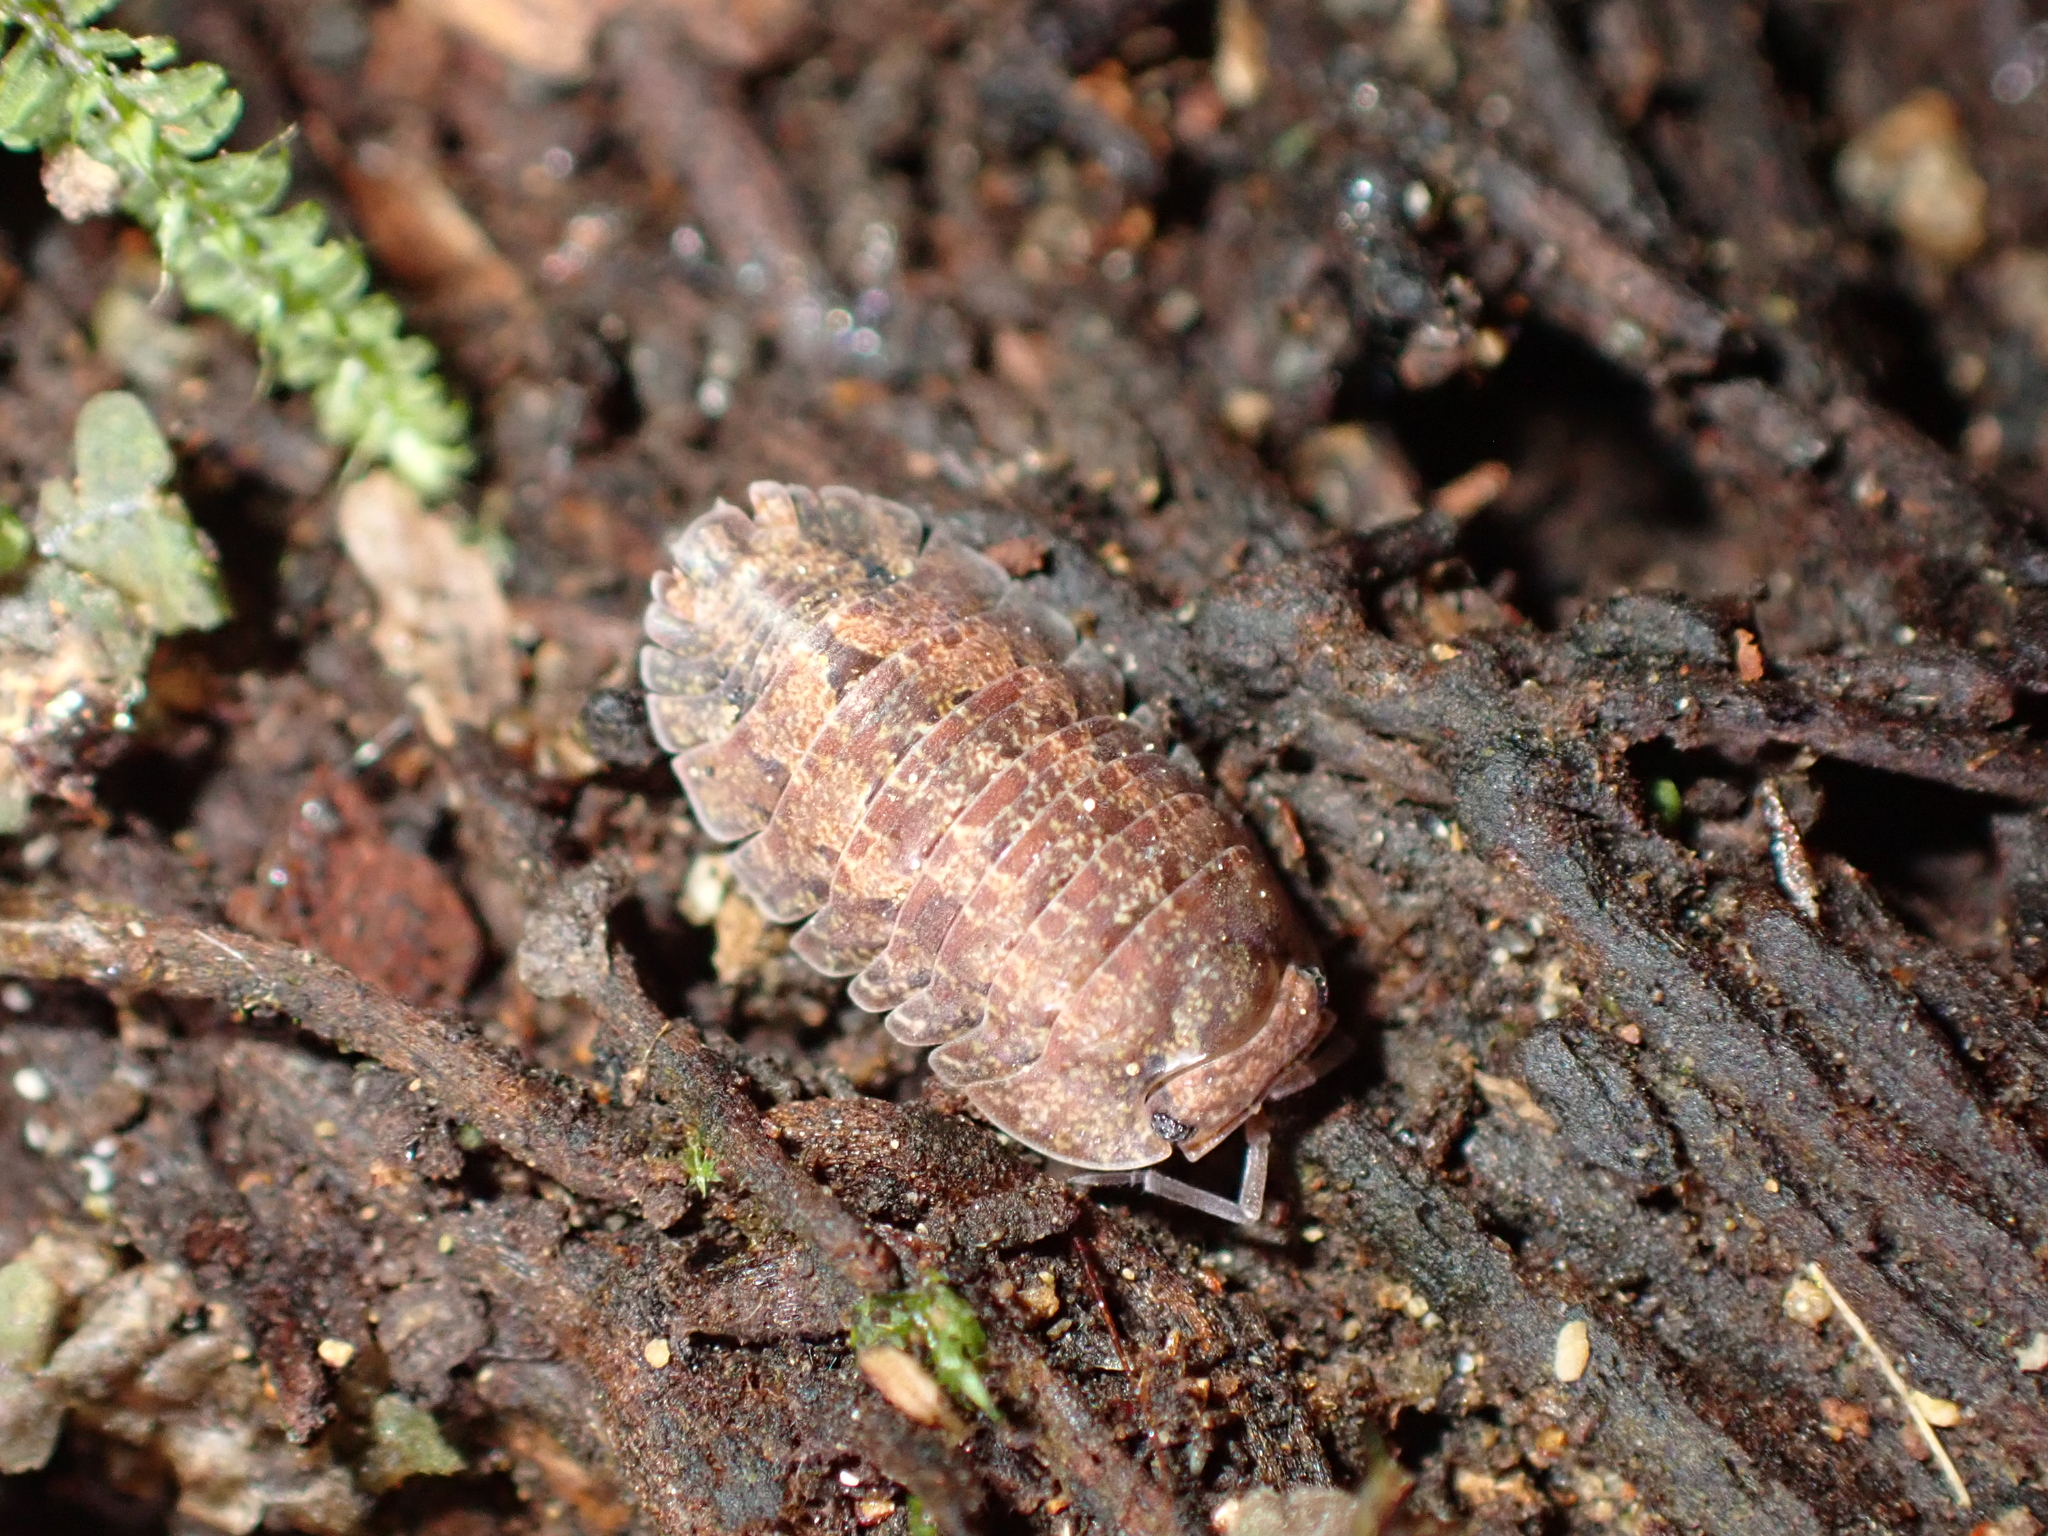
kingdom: Animalia
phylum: Arthropoda
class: Malacostraca
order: Isopoda
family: Armadillidae
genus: Cubaris
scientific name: Cubaris tarangensis
